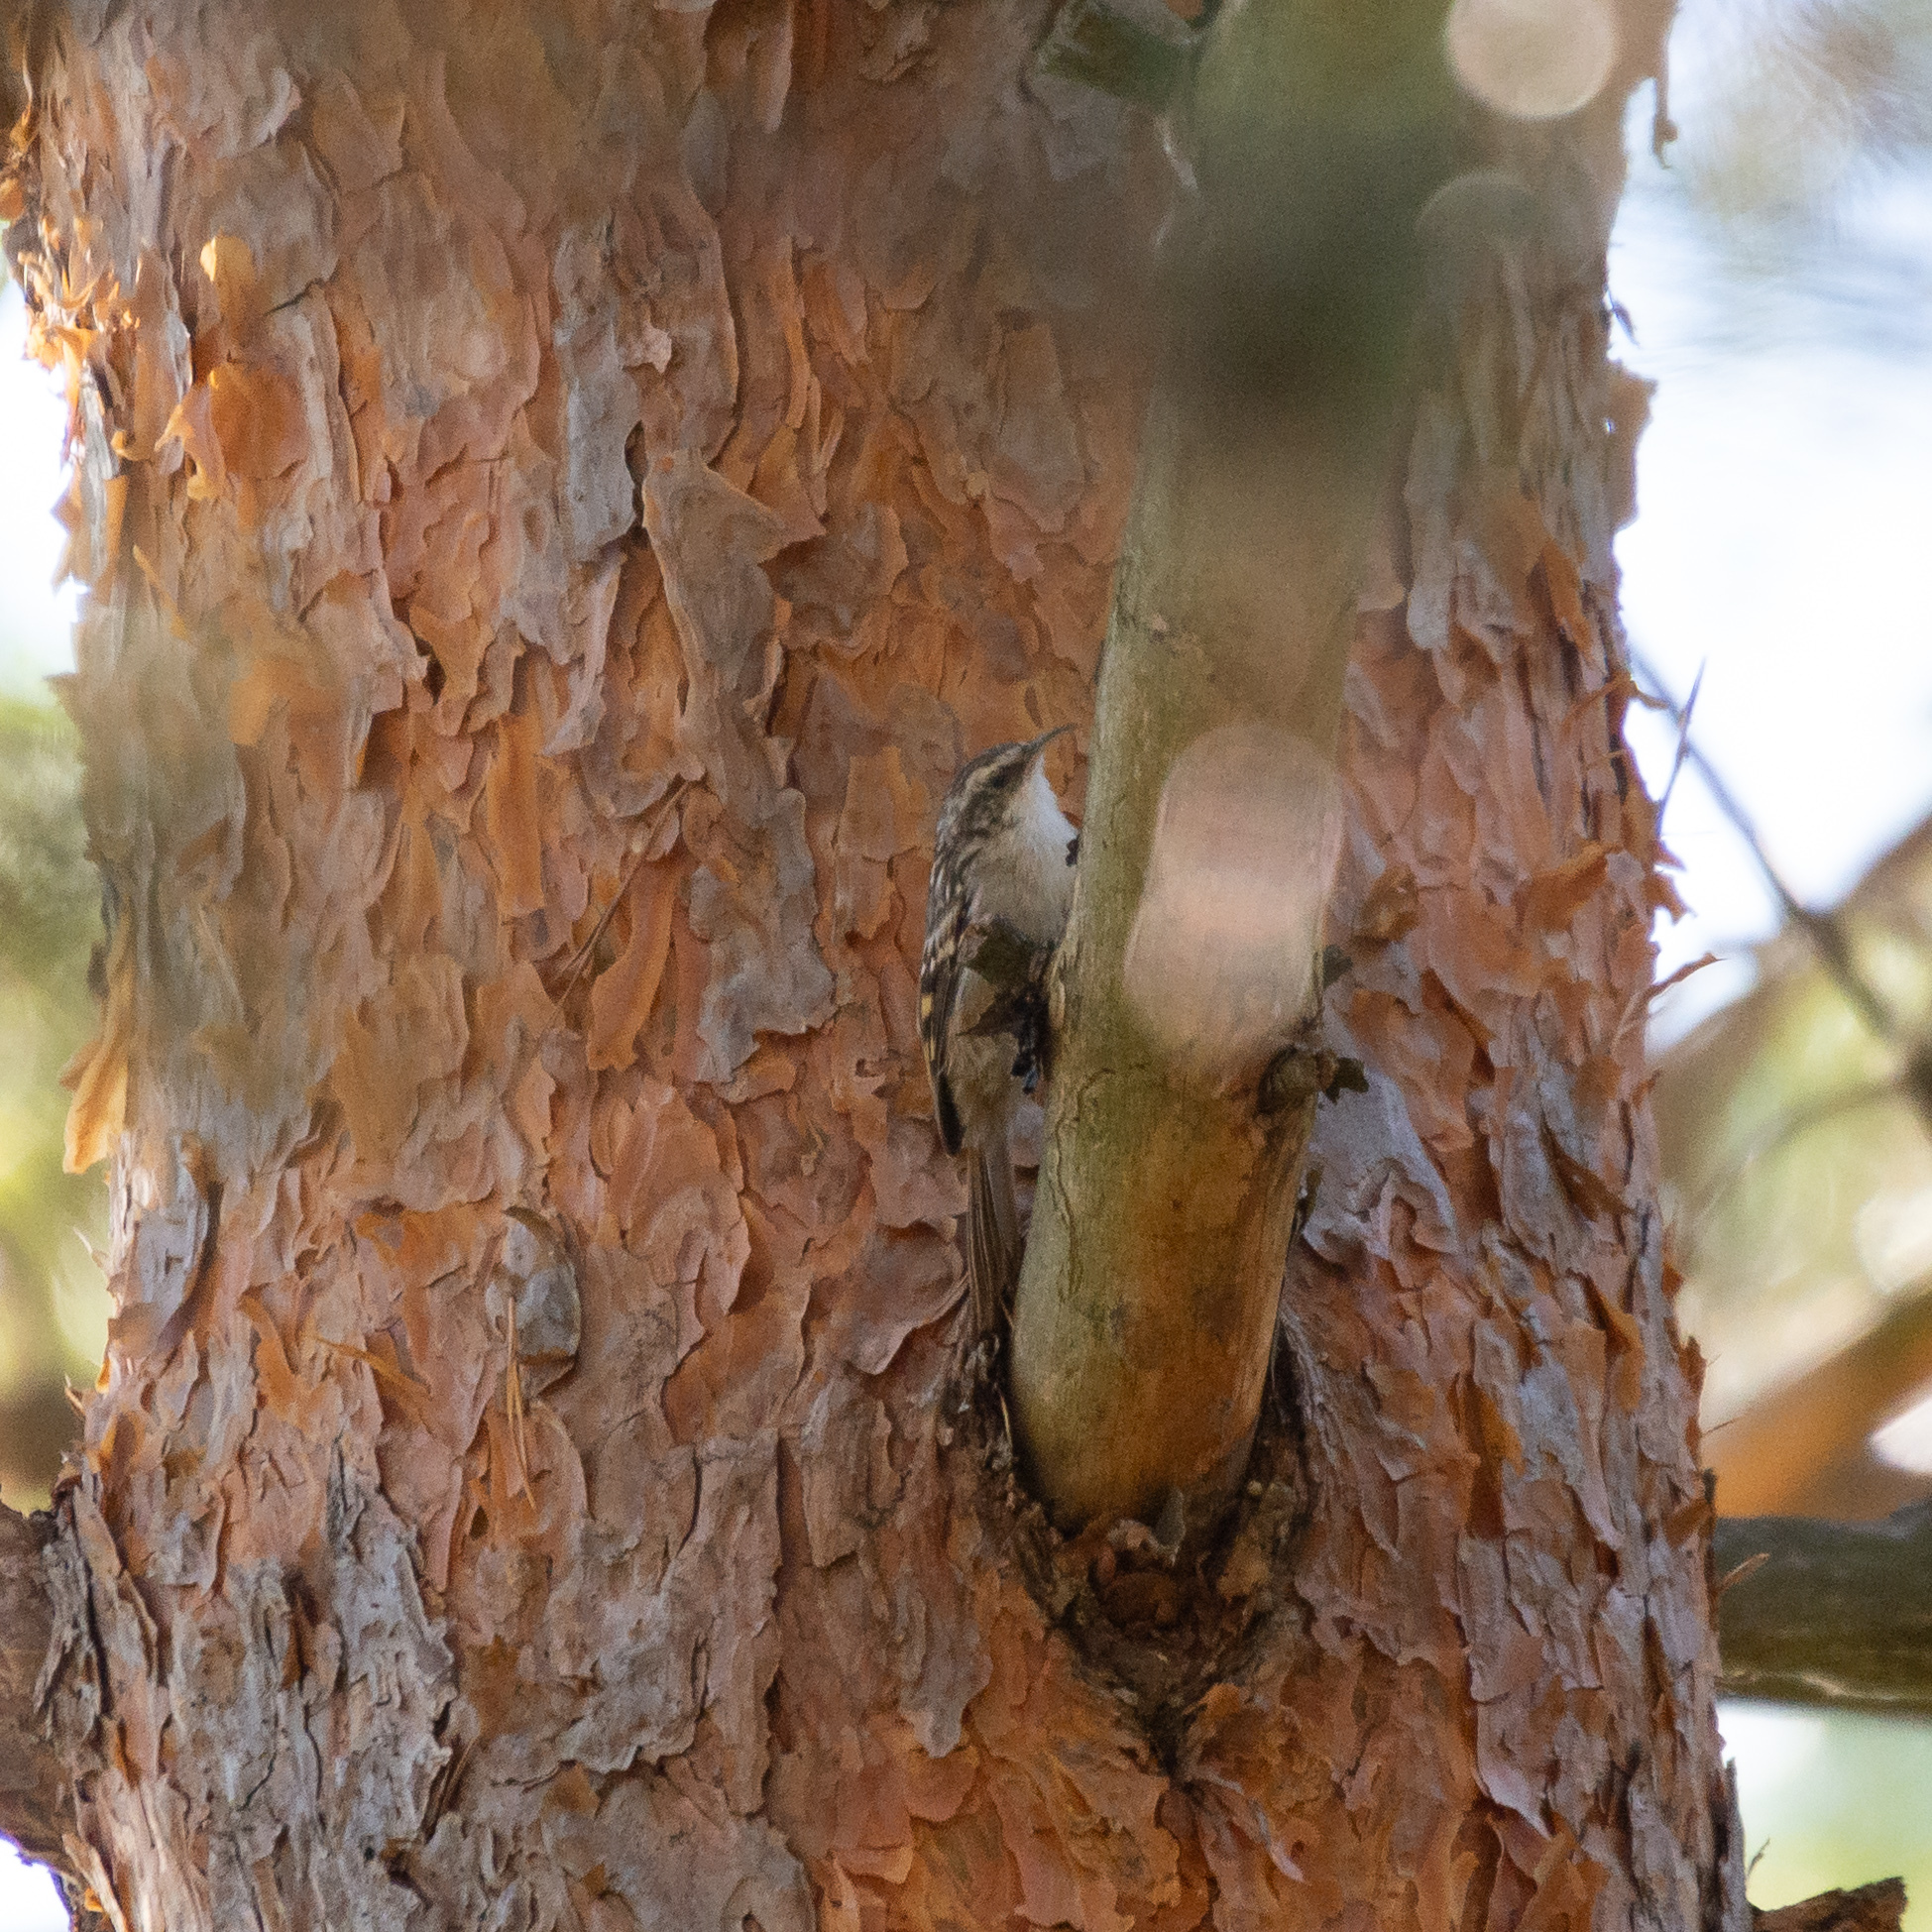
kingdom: Animalia
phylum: Chordata
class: Aves
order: Passeriformes
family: Certhiidae
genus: Certhia
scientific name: Certhia brachydactyla
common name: Short-toed treecreeper
